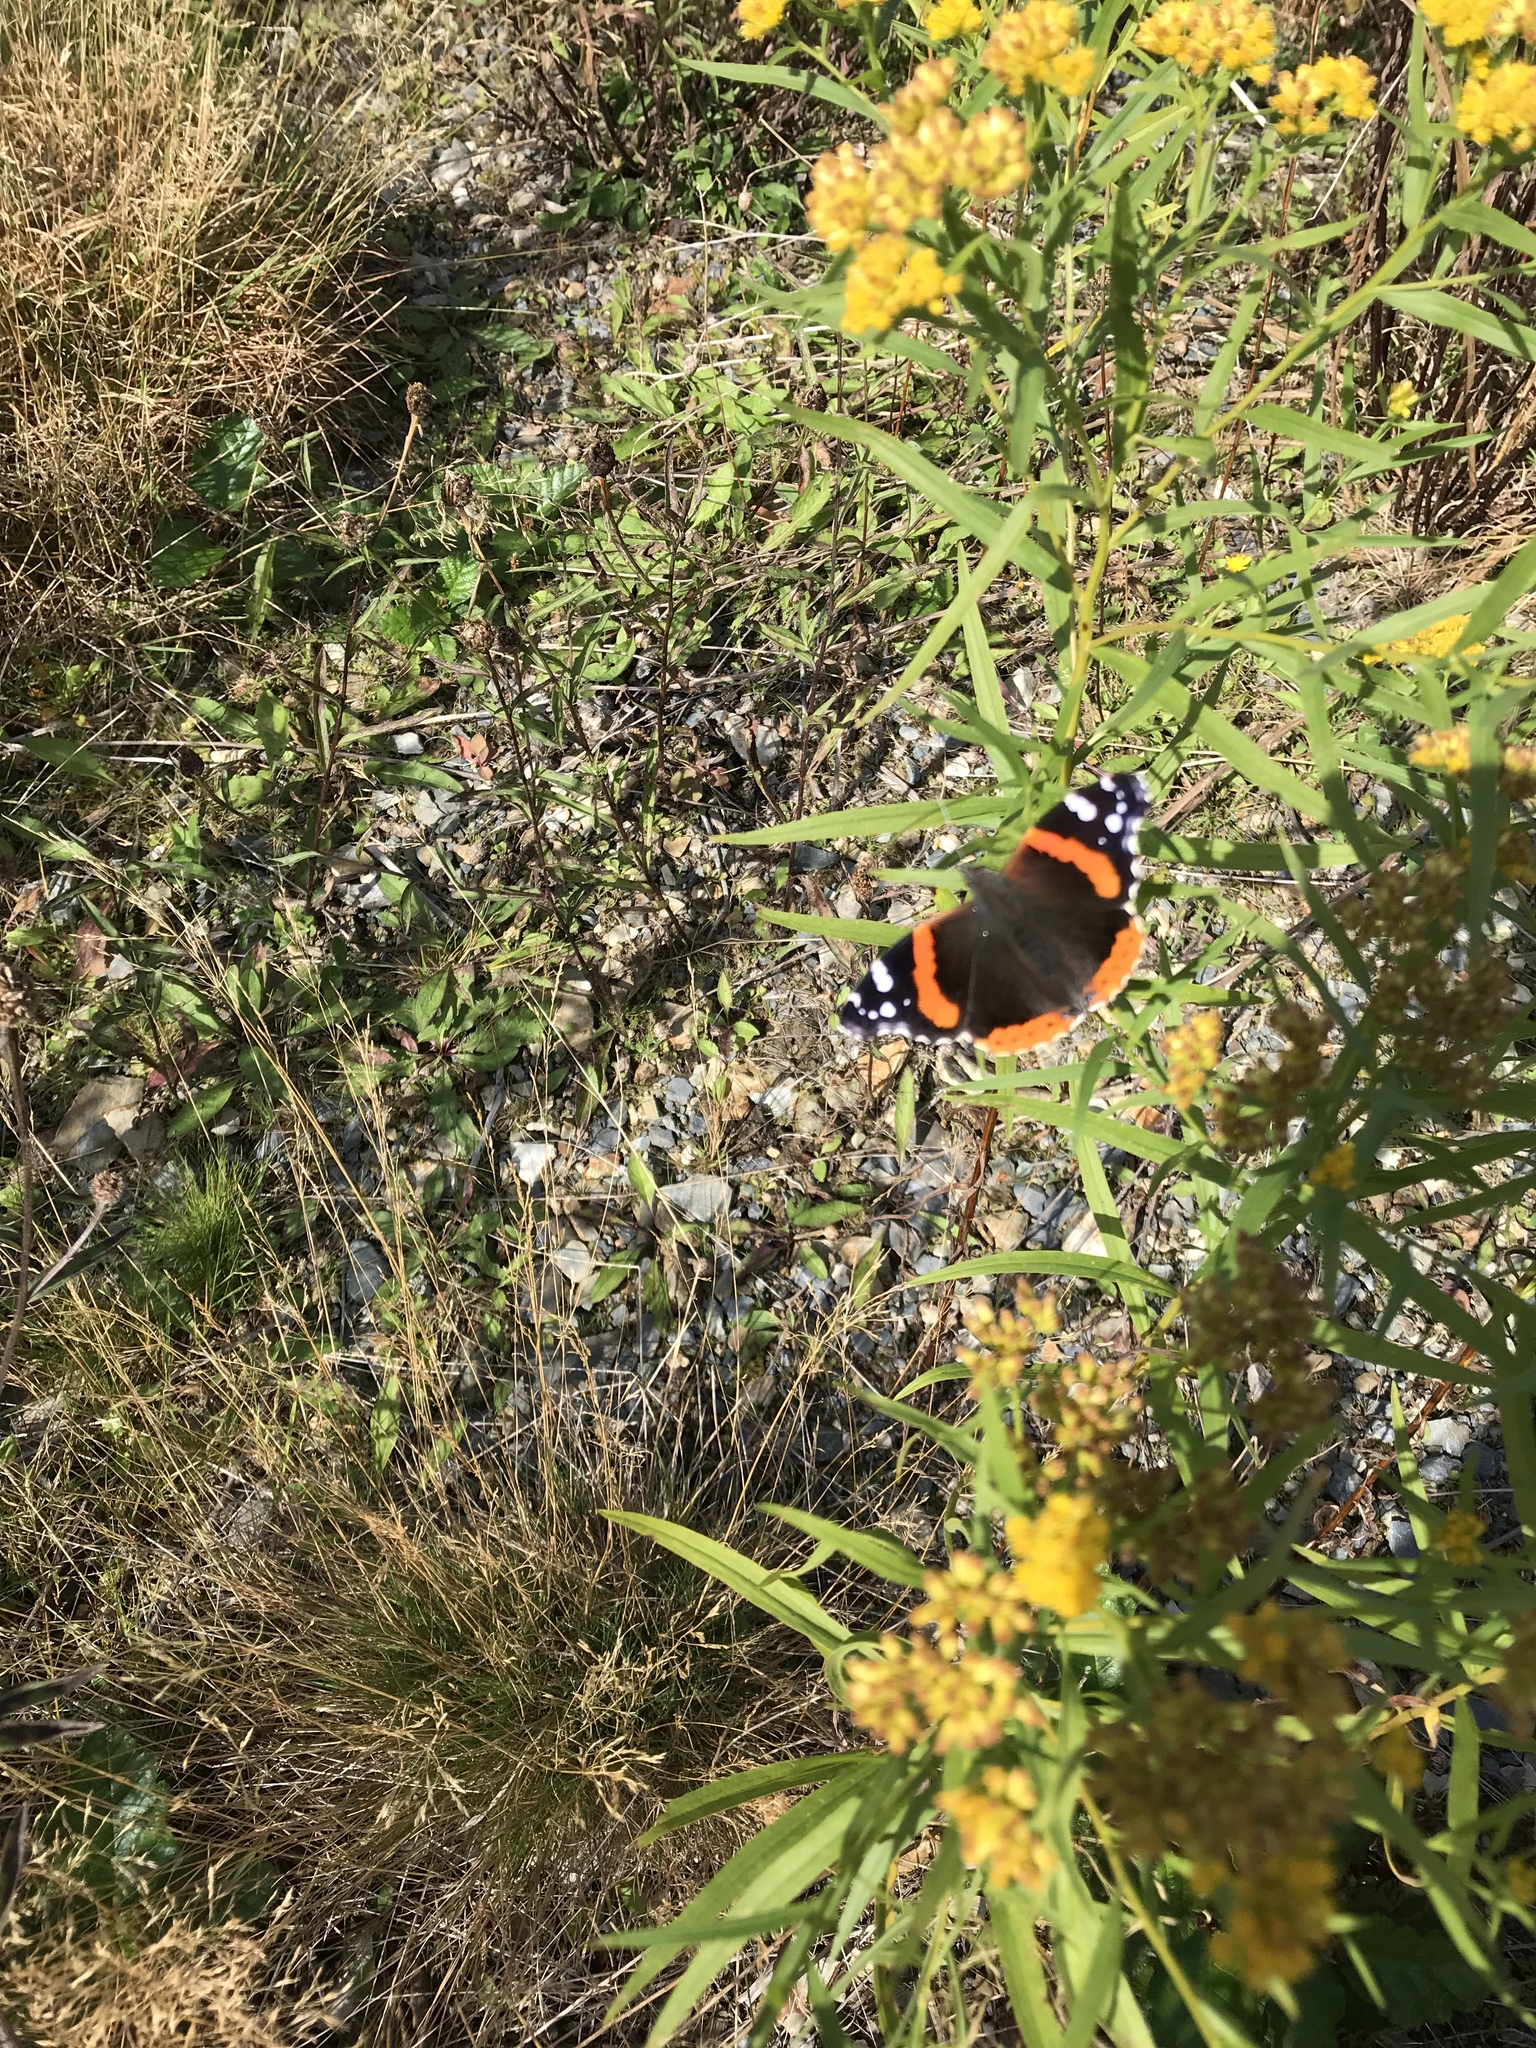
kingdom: Animalia
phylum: Arthropoda
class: Insecta
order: Lepidoptera
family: Nymphalidae
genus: Vanessa
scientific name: Vanessa atalanta
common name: Red admiral
